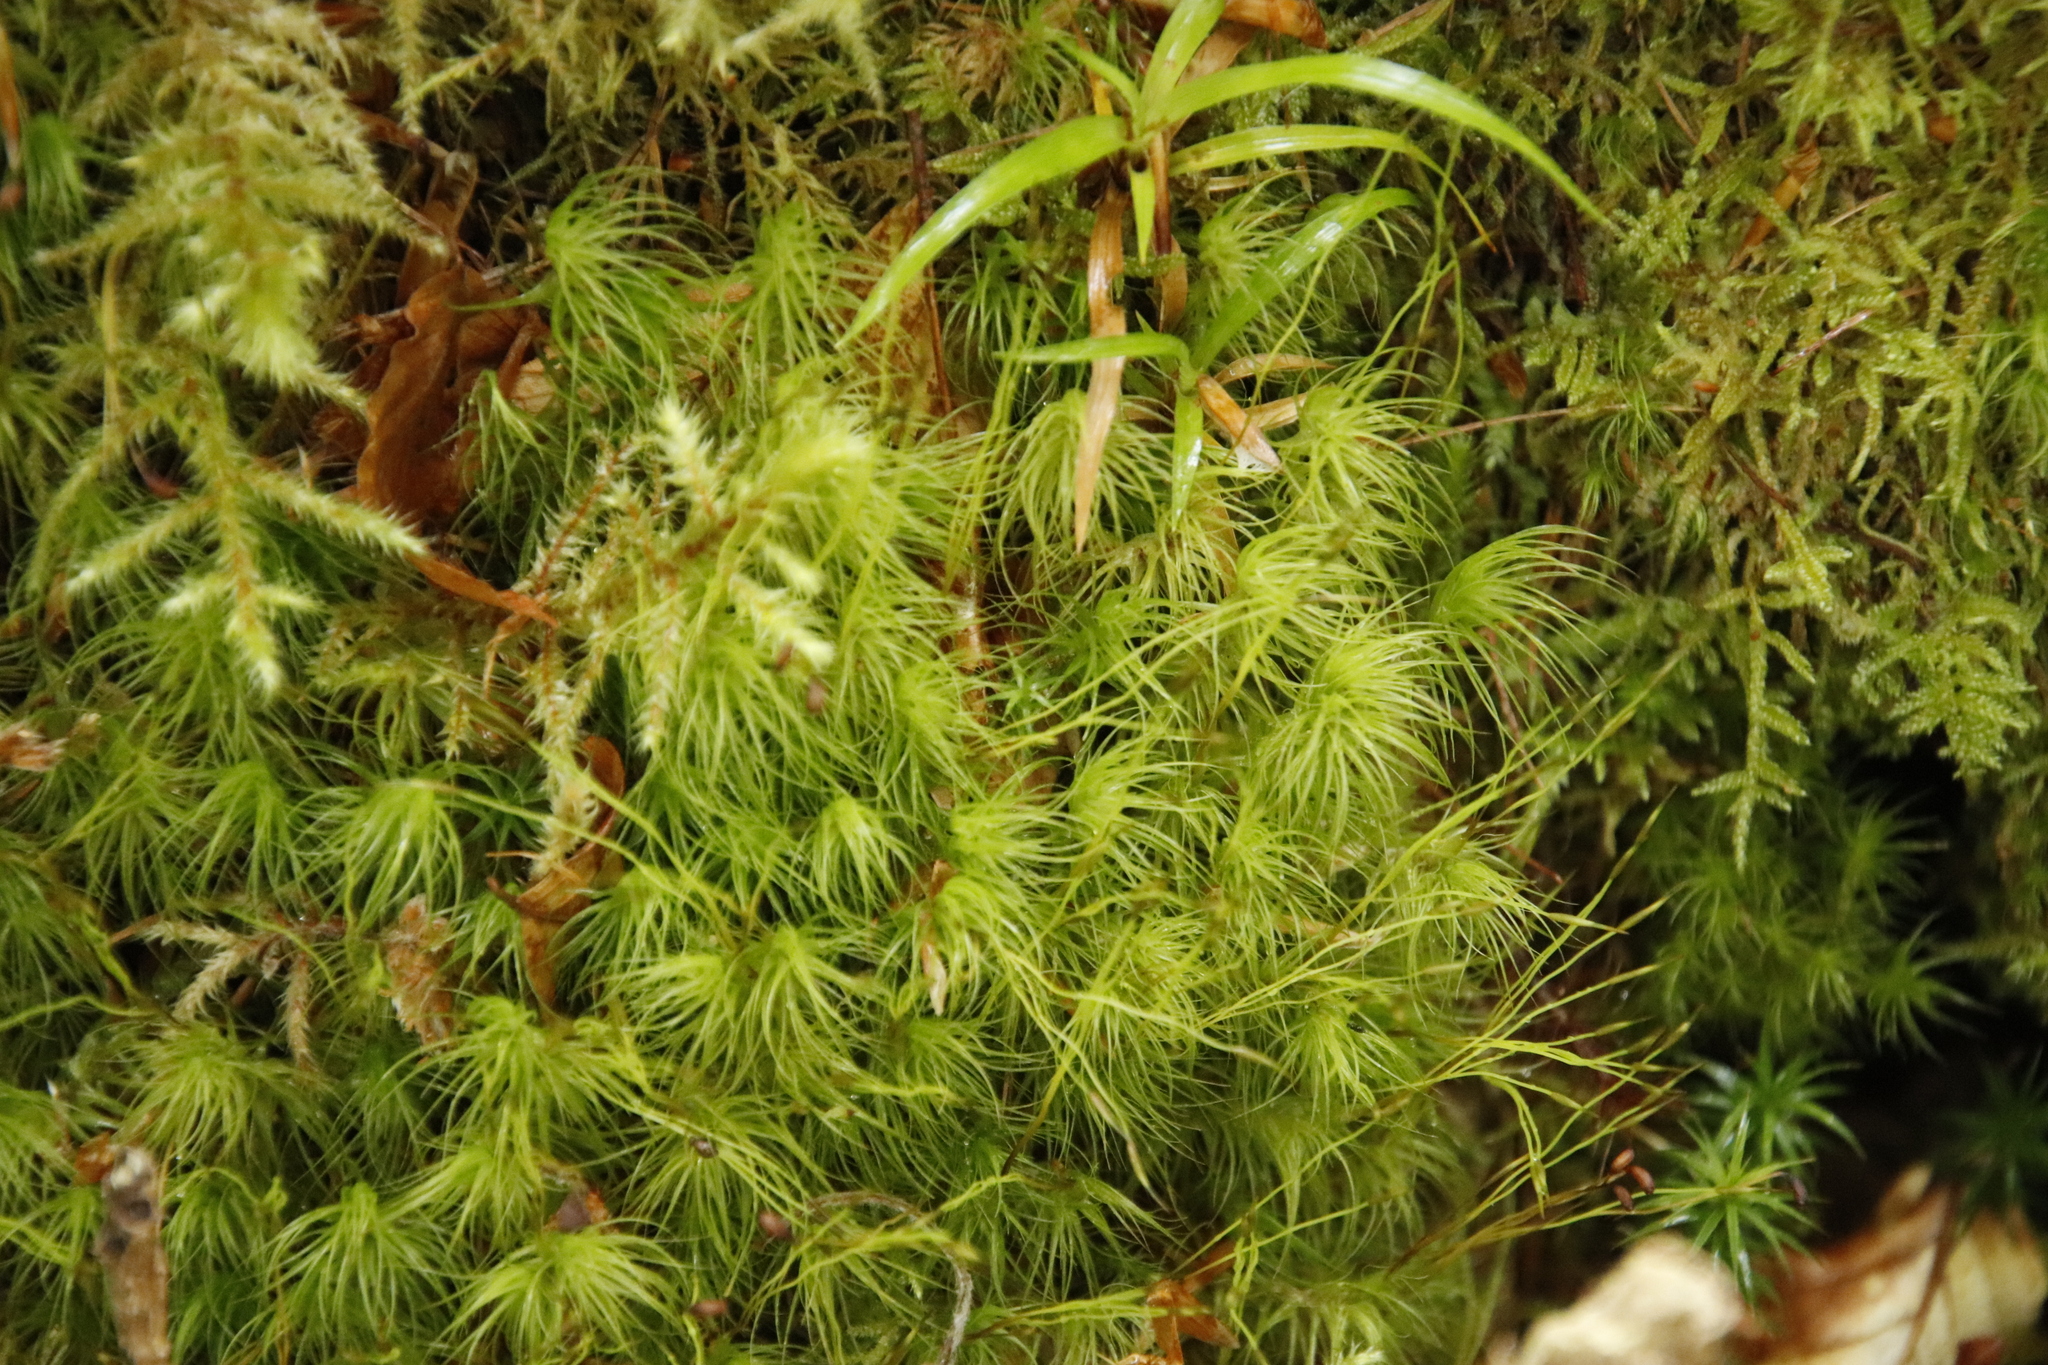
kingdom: Plantae
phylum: Bryophyta
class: Bryopsida
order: Dicranales
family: Dicranaceae
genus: Dicranum
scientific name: Dicranum majus
